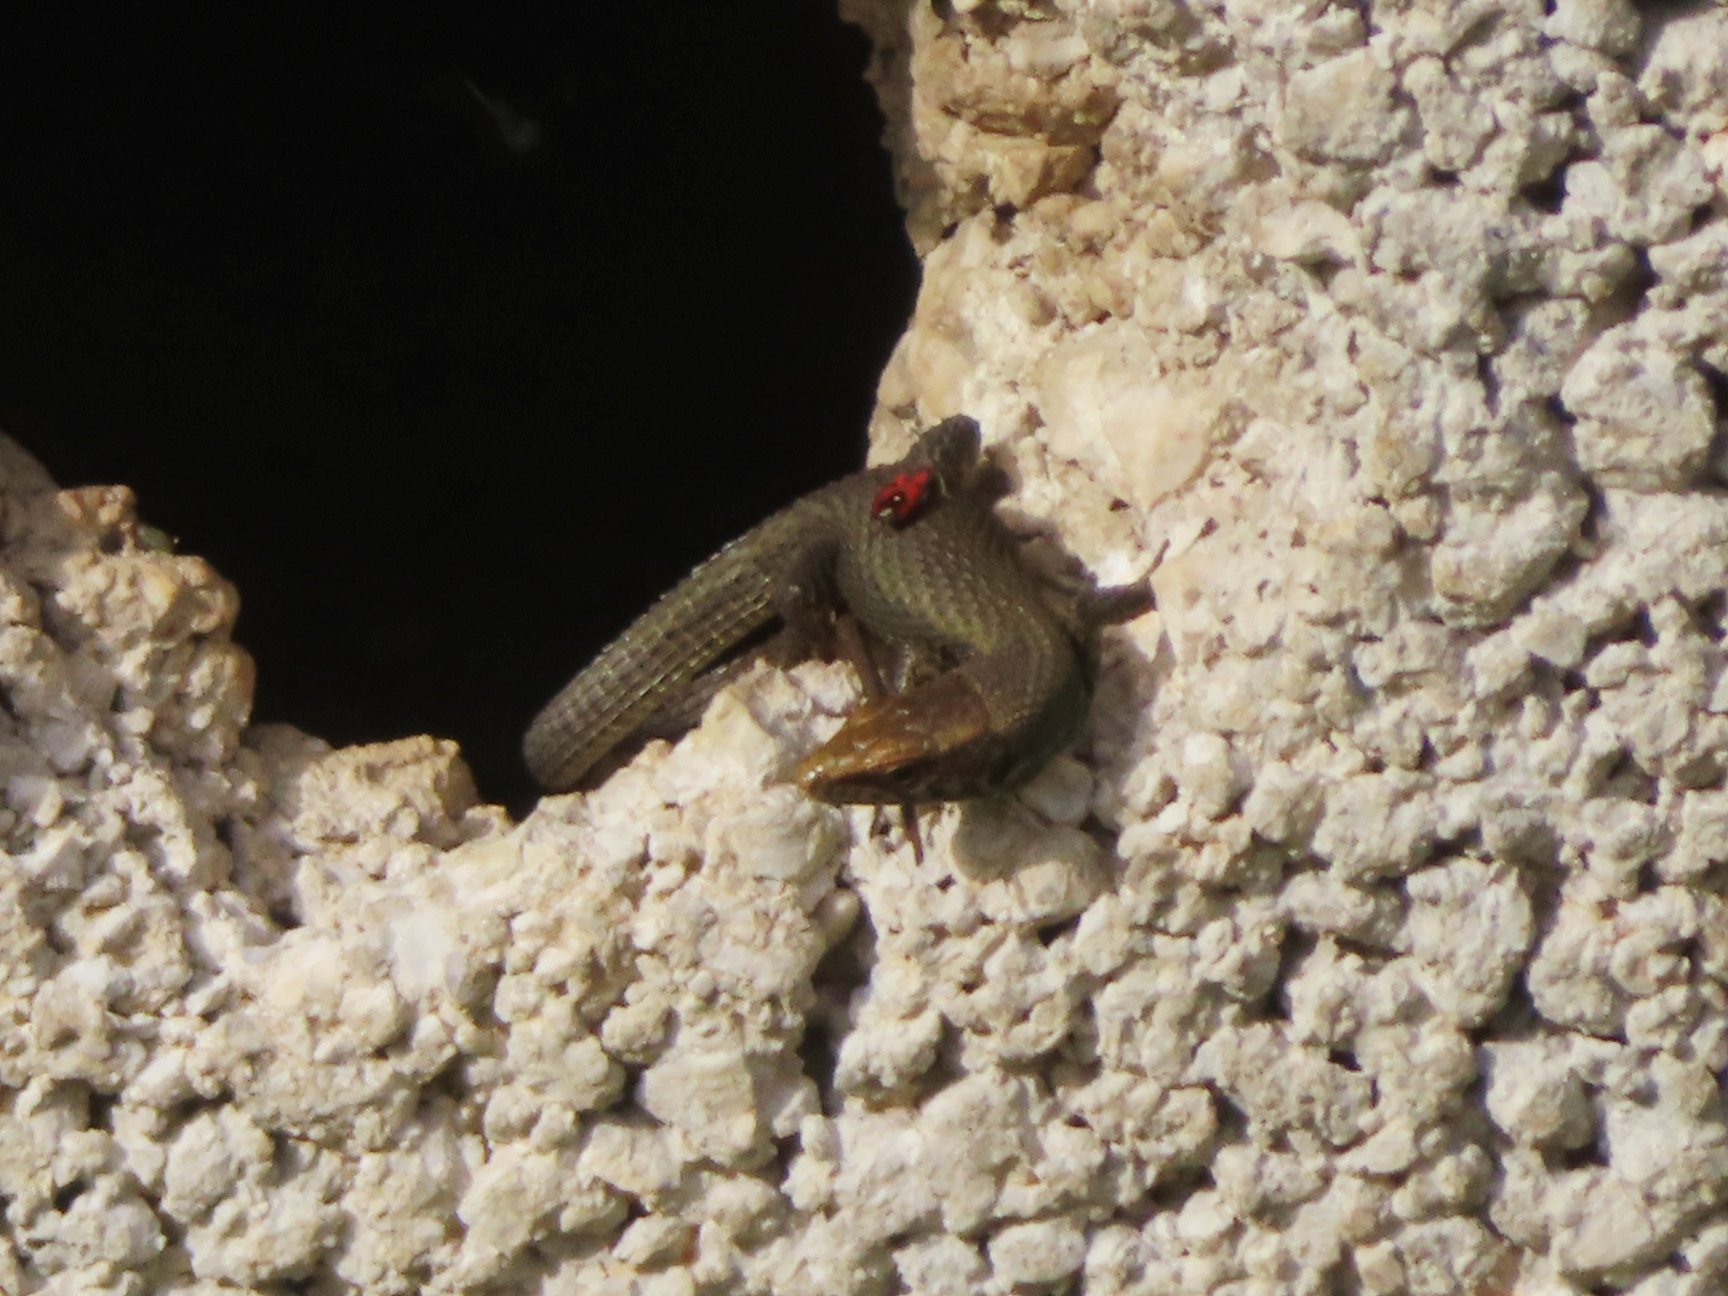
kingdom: Animalia
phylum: Chordata
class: Squamata
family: Lacertidae
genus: Algyroides
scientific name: Algyroides moreoticus
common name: Greek algyroides
